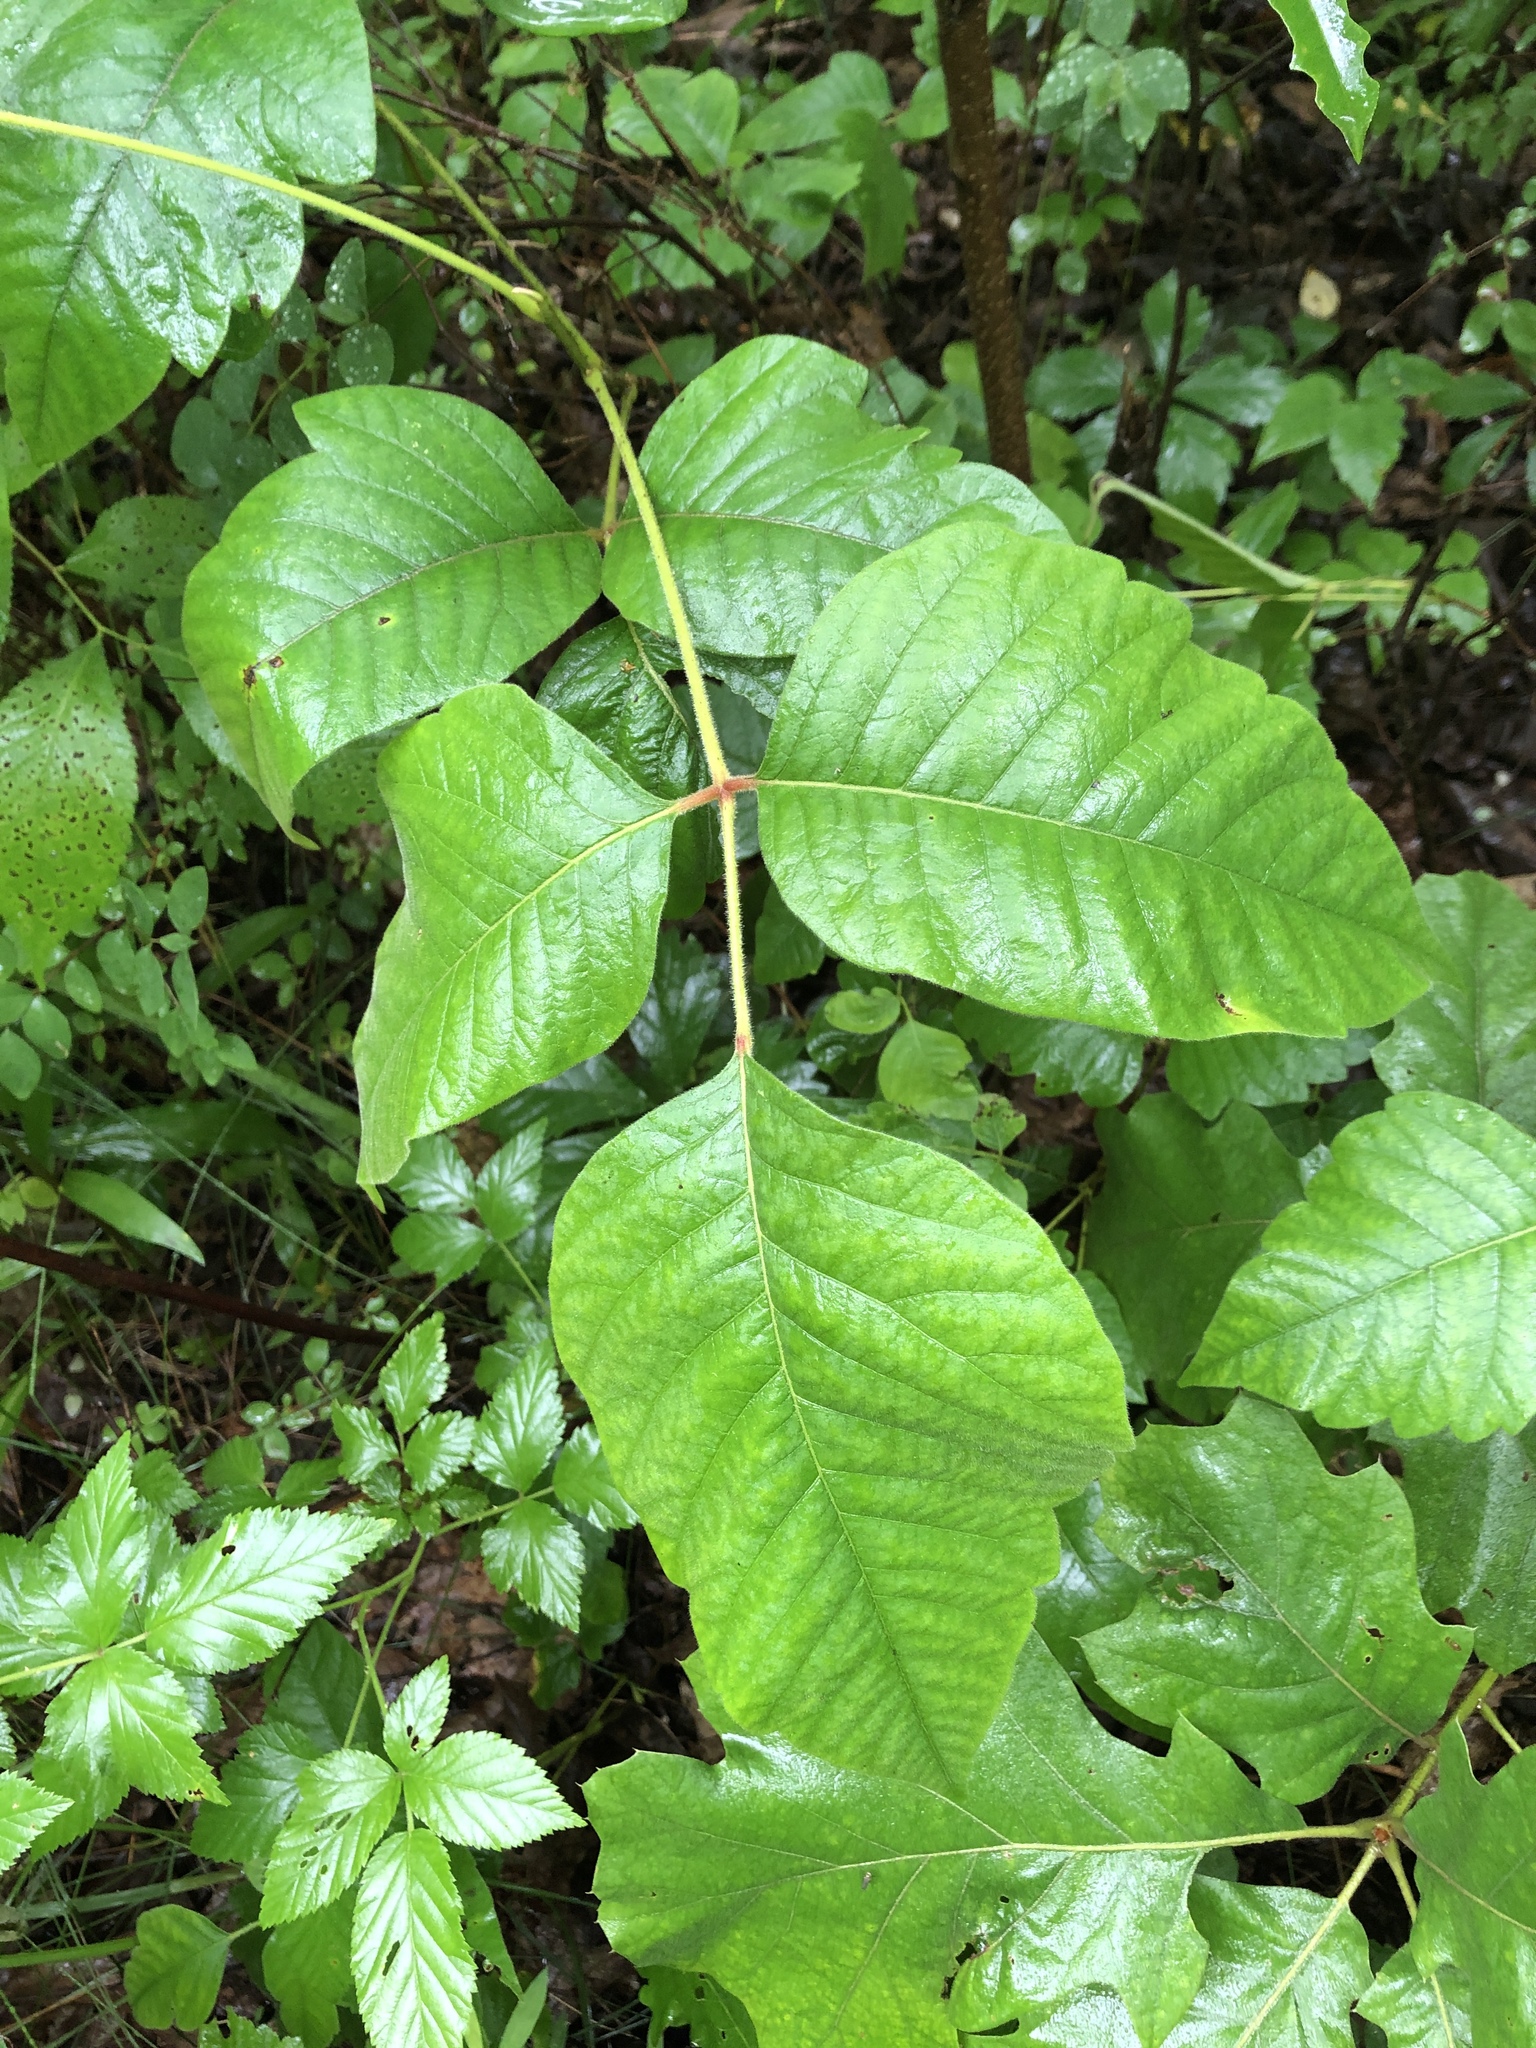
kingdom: Plantae
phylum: Tracheophyta
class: Magnoliopsida
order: Sapindales
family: Anacardiaceae
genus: Toxicodendron
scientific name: Toxicodendron radicans
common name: Poison ivy
